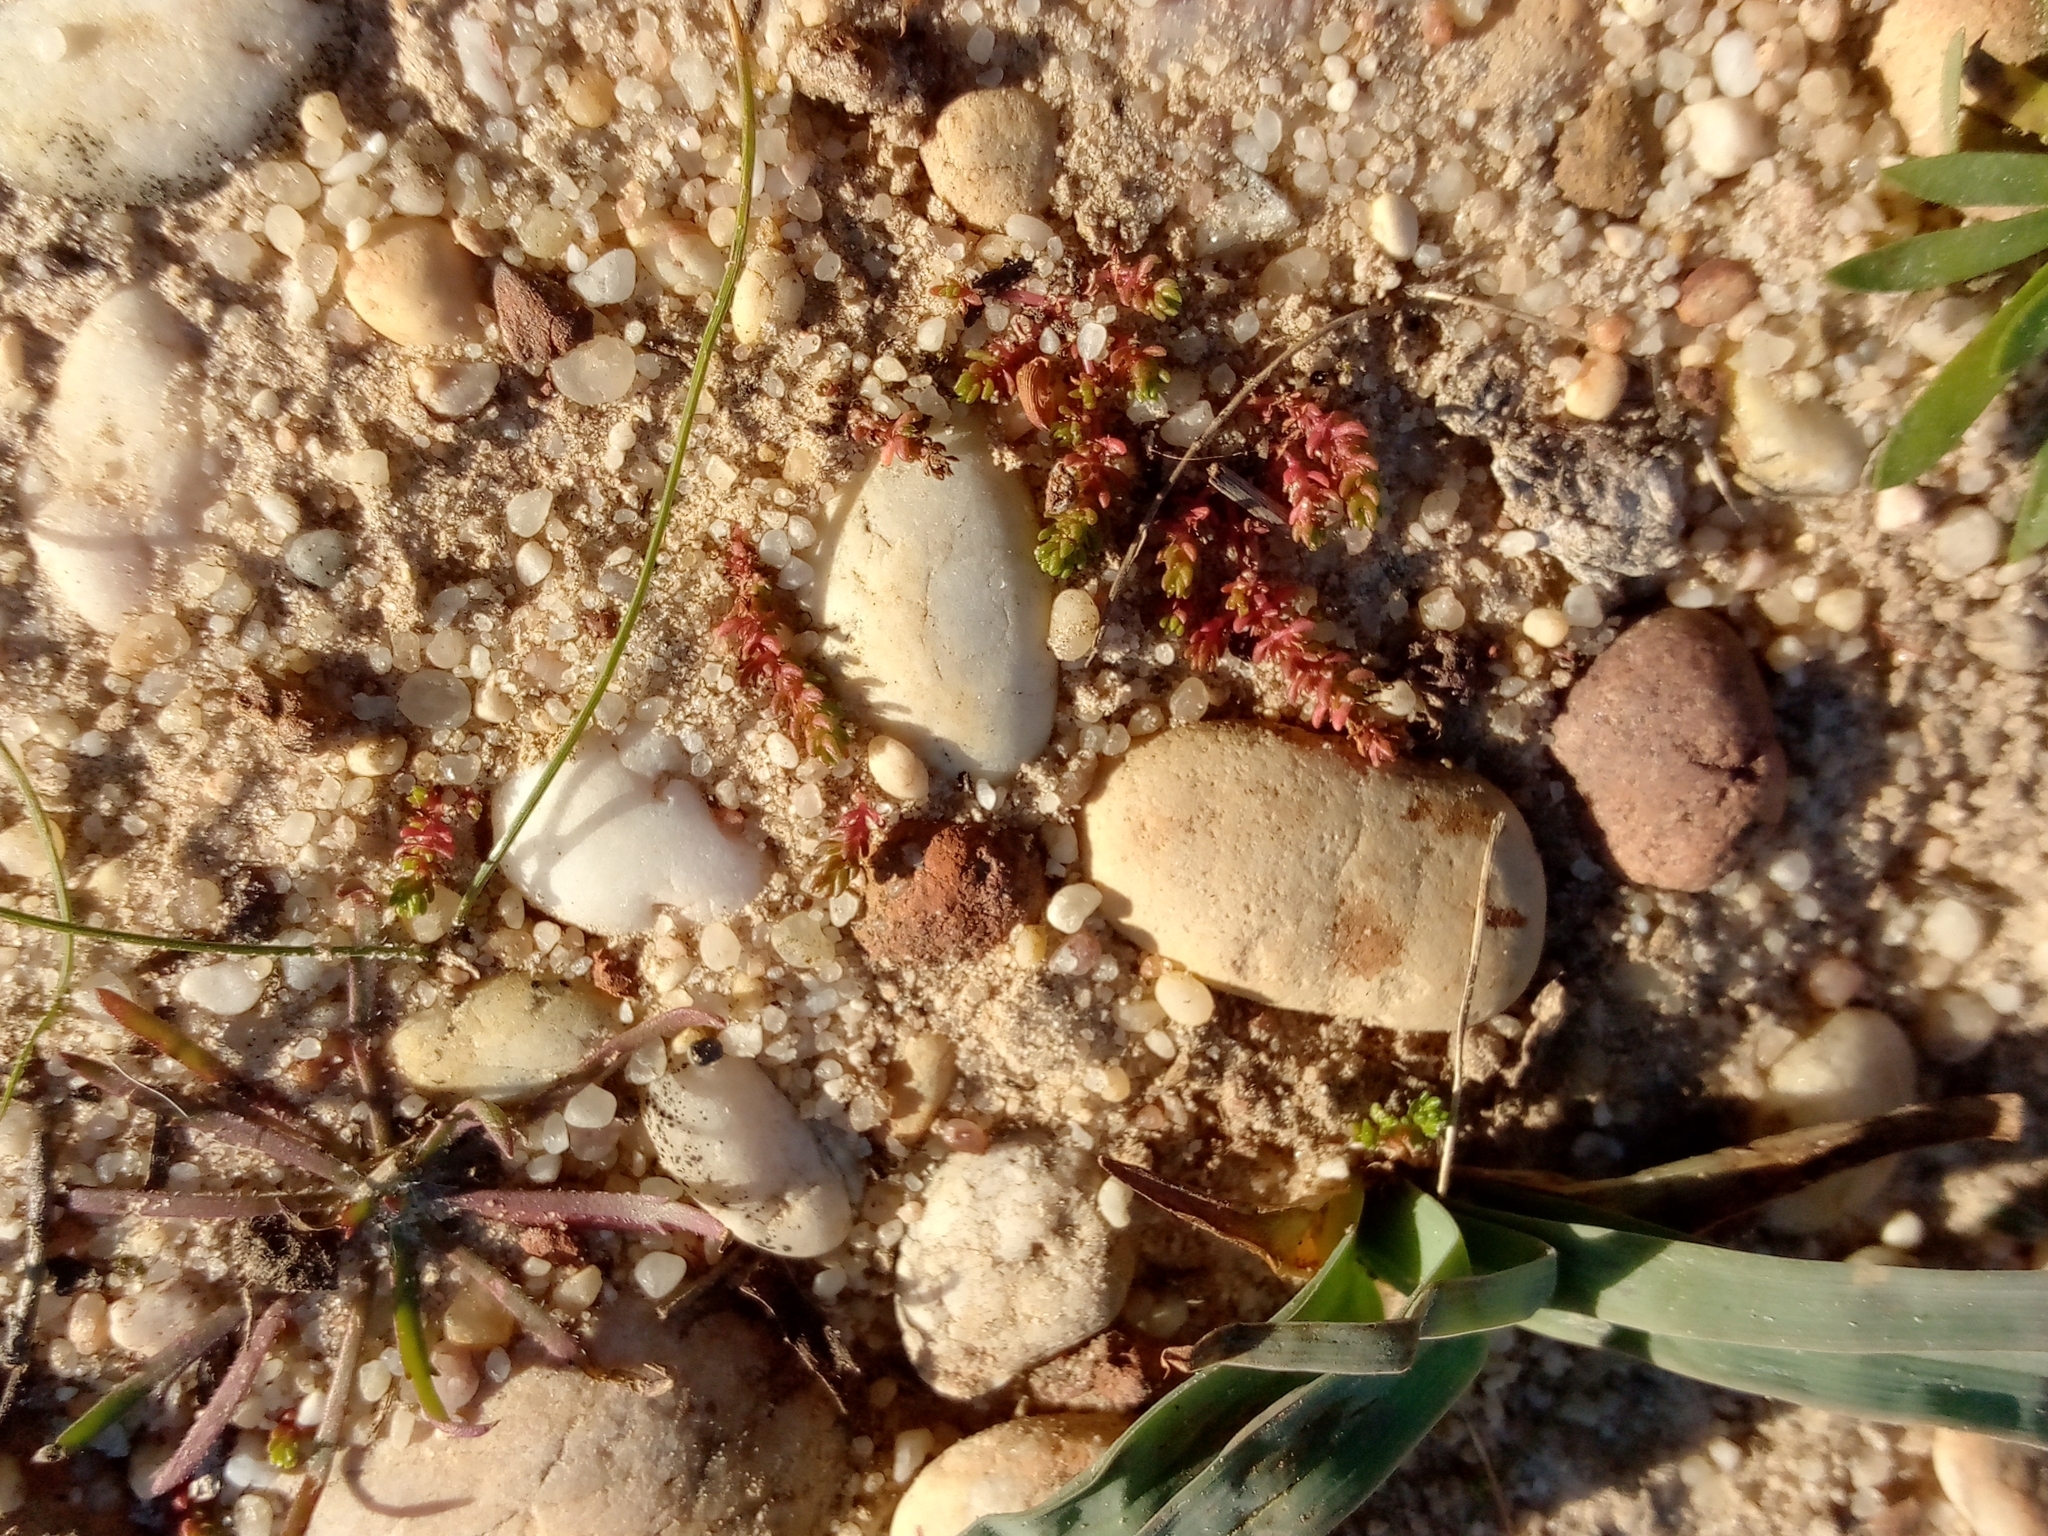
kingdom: Plantae
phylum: Tracheophyta
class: Magnoliopsida
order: Saxifragales
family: Crassulaceae
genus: Crassula
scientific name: Crassula tillaea
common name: Mossy stonecrop
